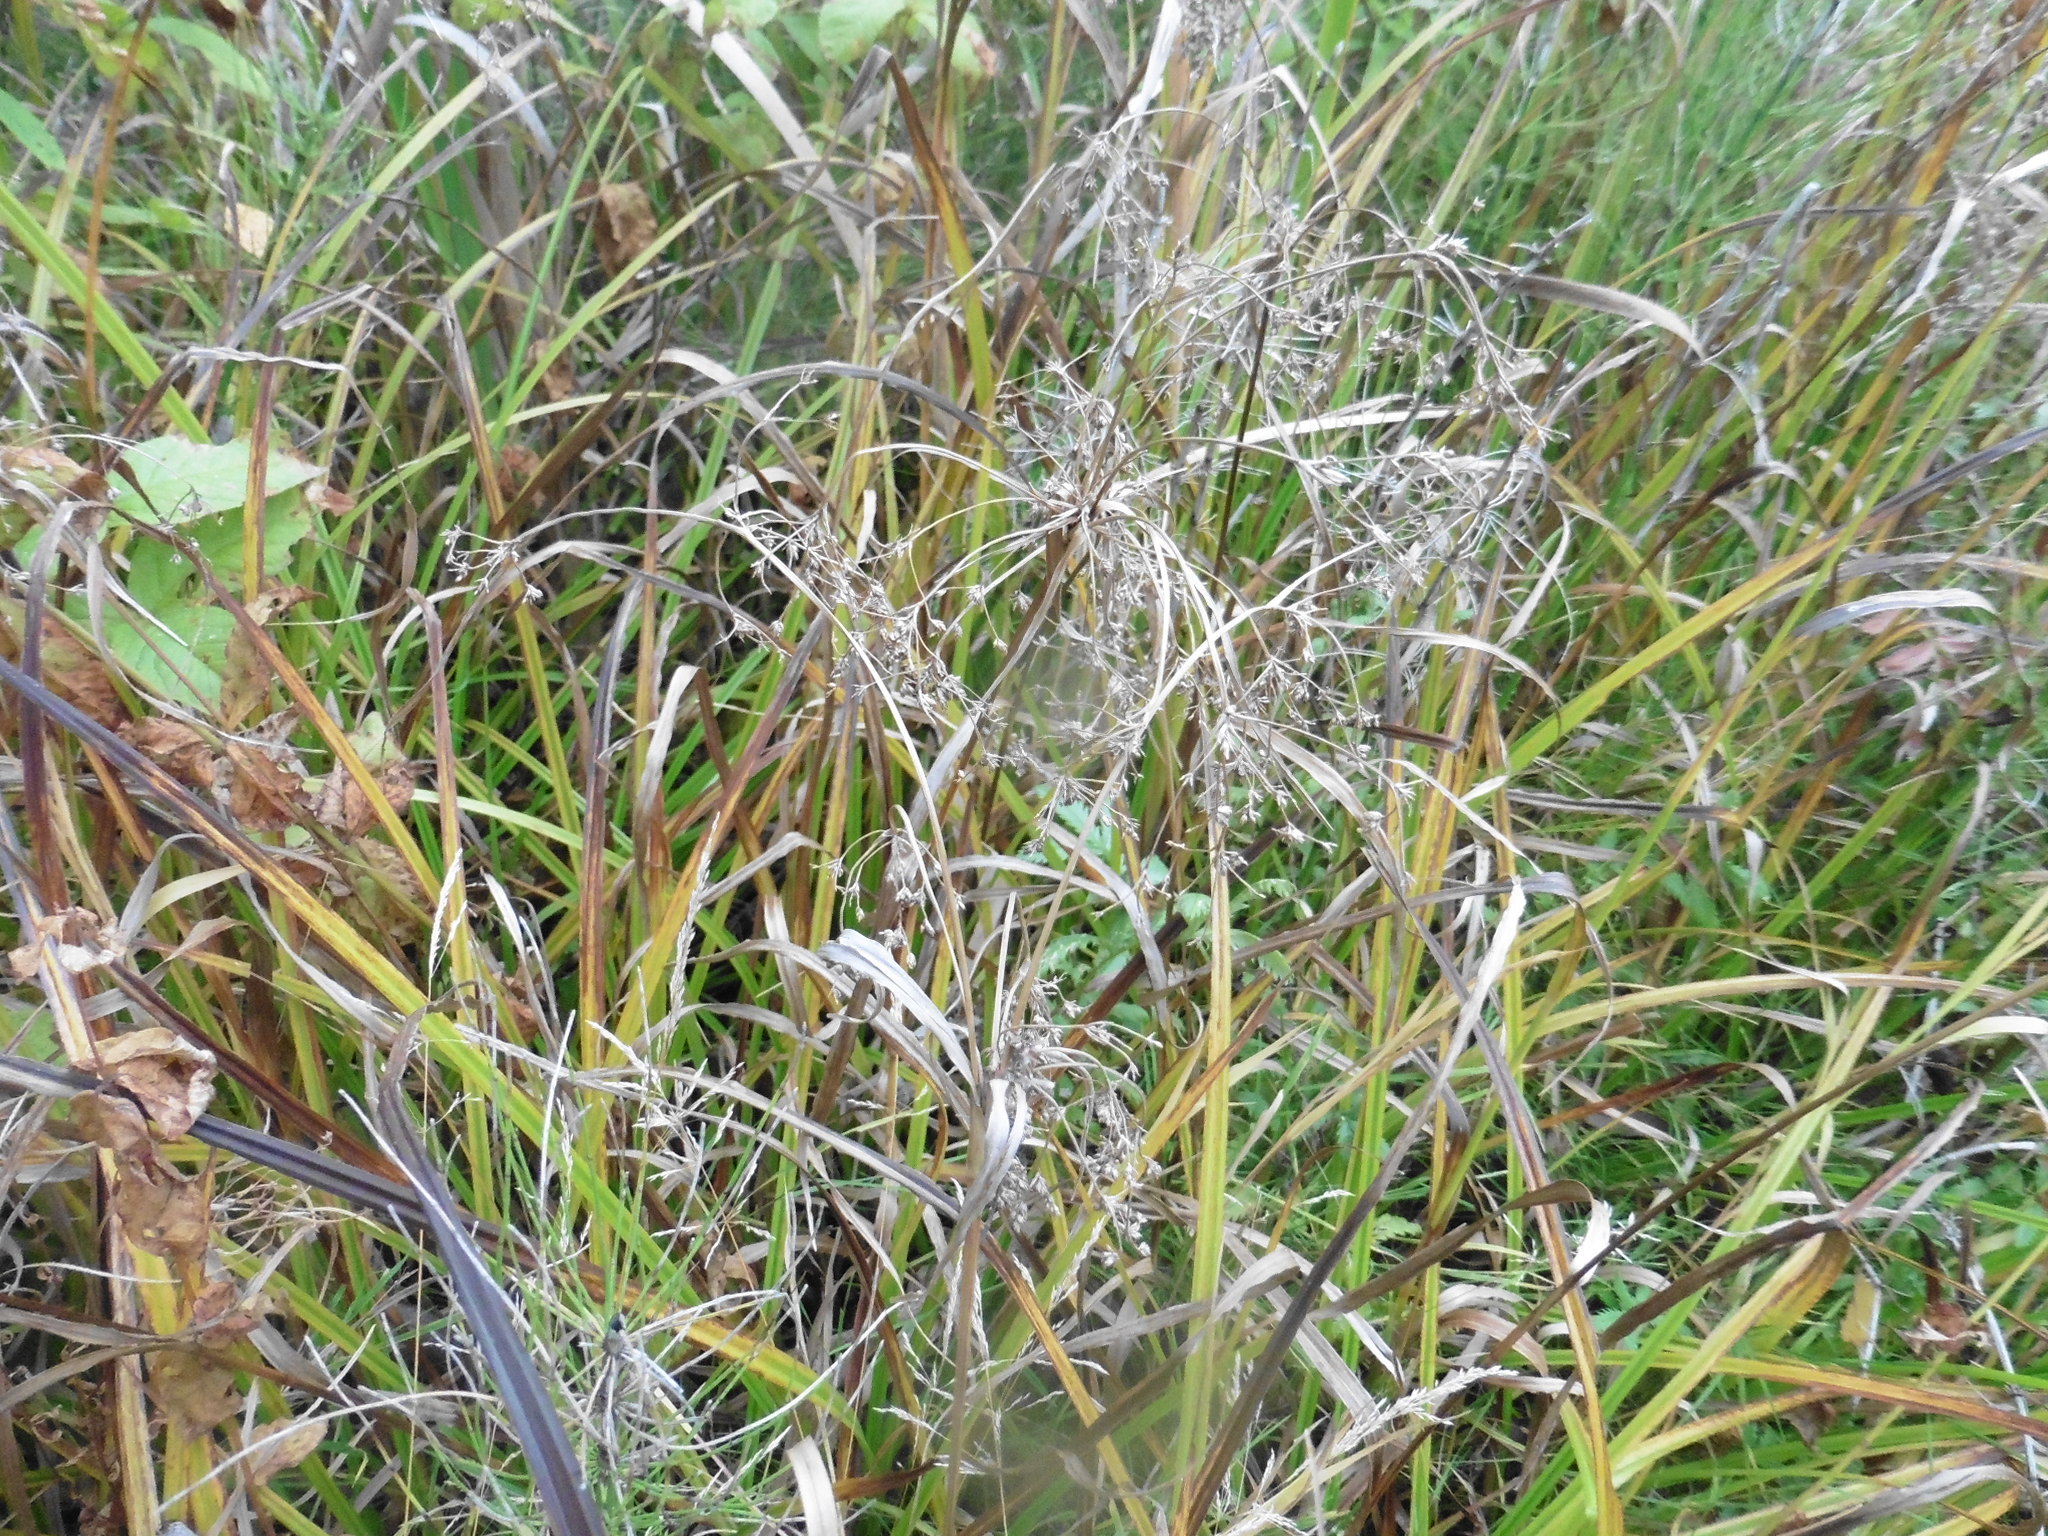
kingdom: Plantae
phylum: Tracheophyta
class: Liliopsida
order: Poales
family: Cyperaceae
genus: Scirpus
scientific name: Scirpus sylvaticus
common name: Wood club-rush
